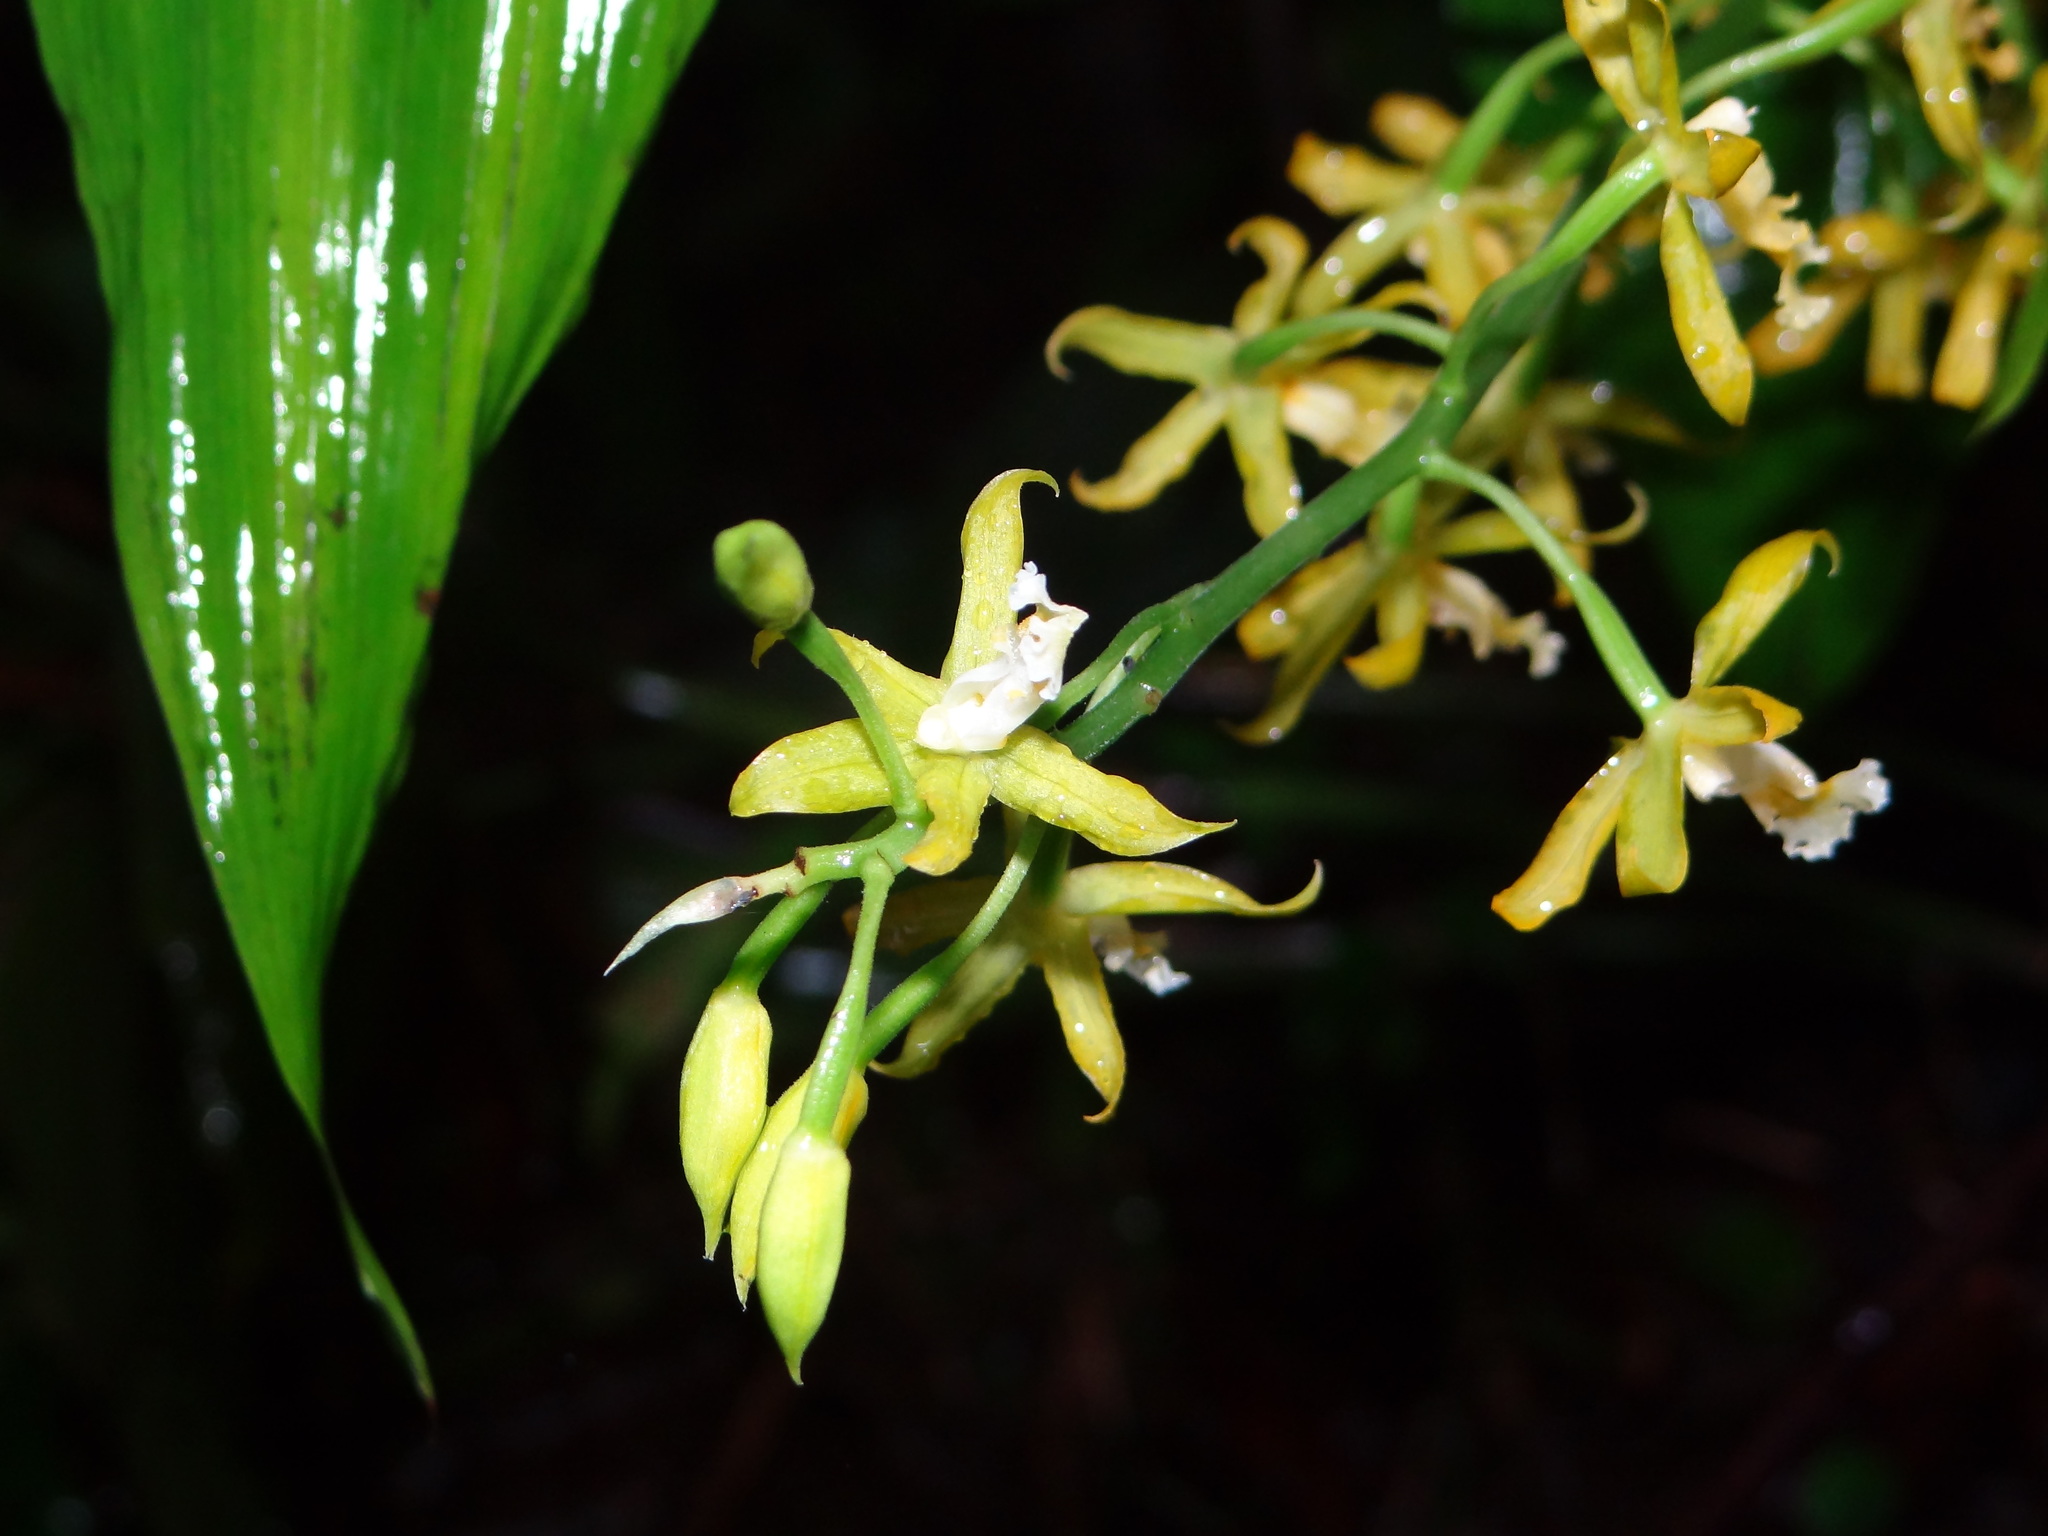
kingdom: Plantae
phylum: Tracheophyta
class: Liliopsida
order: Asparagales
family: Orchidaceae
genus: Calanthe
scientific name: Calanthe obcordata
